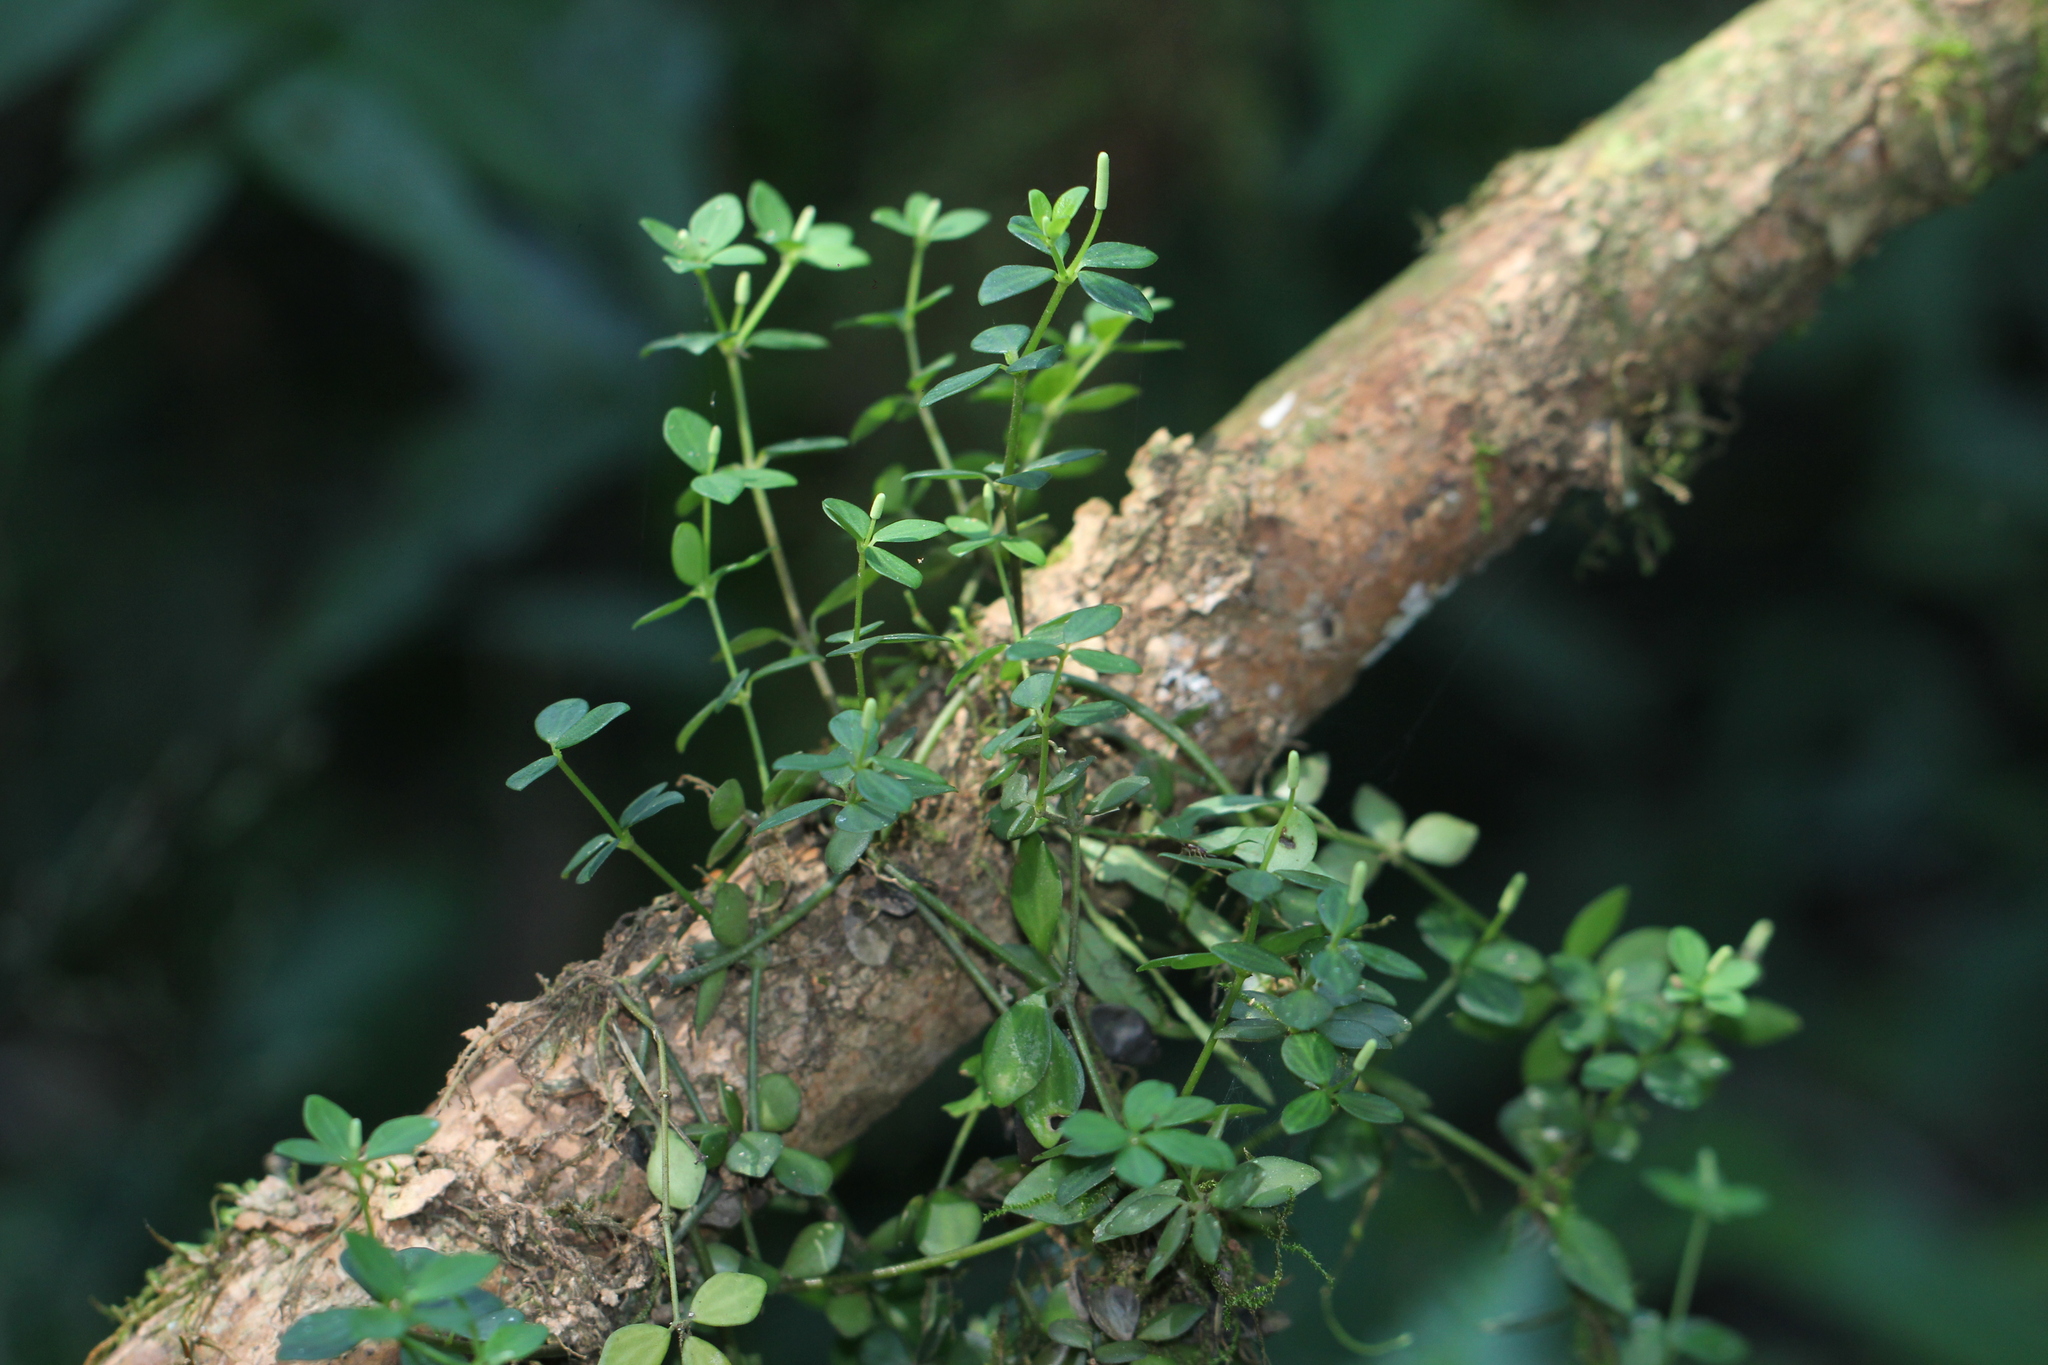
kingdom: Plantae
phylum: Tracheophyta
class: Magnoliopsida
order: Piperales
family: Piperaceae
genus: Peperomia
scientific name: Peperomia tetraphylla
